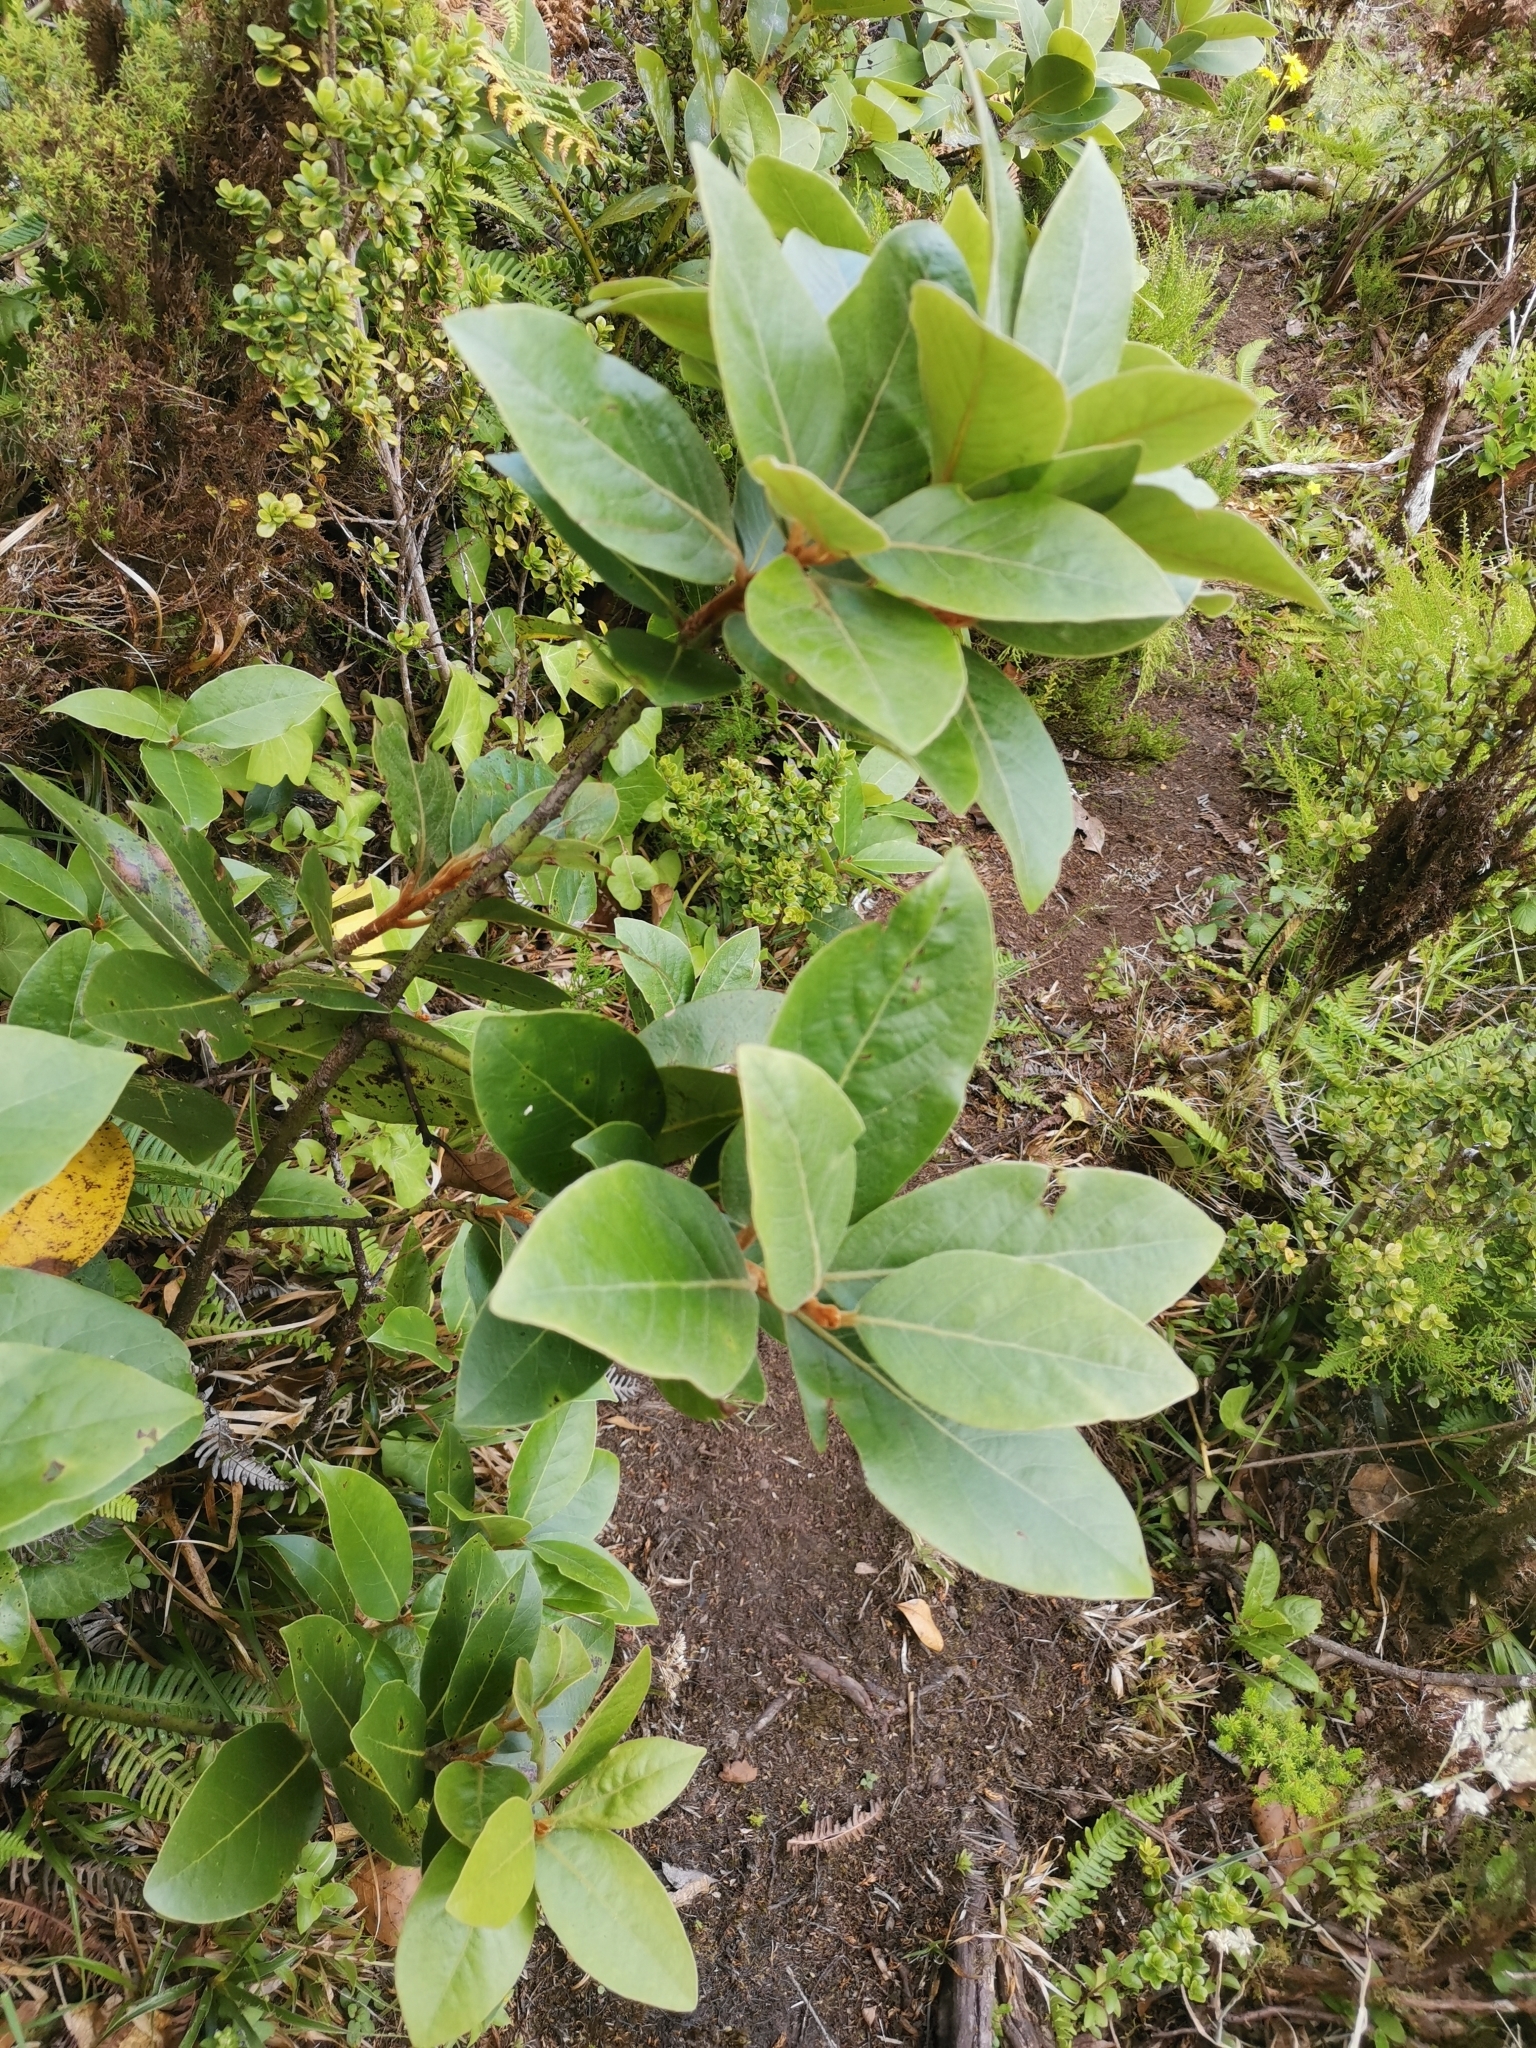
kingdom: Plantae
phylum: Tracheophyta
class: Magnoliopsida
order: Laurales
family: Lauraceae
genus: Laurus
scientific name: Laurus azorica
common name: Macaronesian laurel
